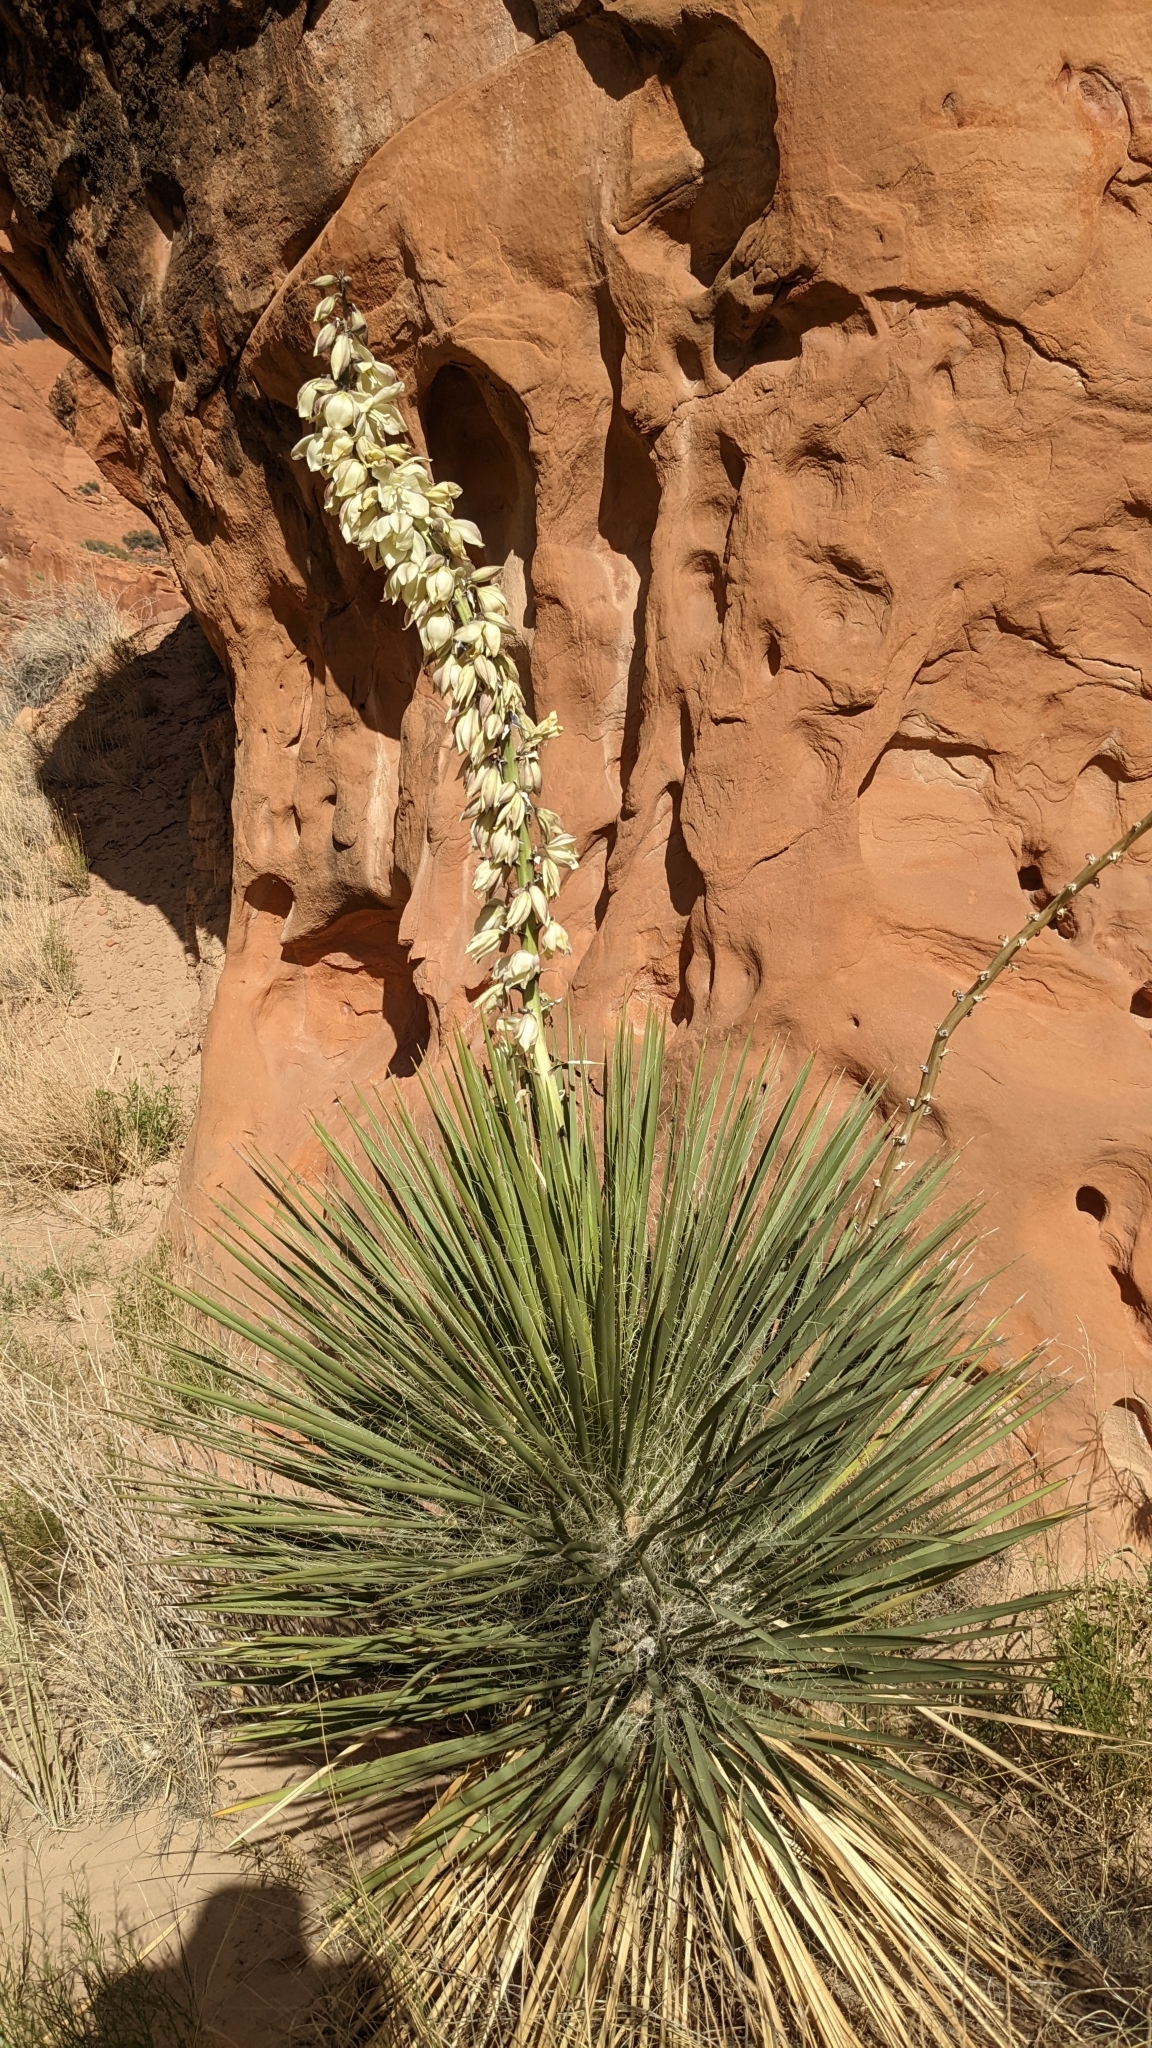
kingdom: Plantae
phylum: Tracheophyta
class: Liliopsida
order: Asparagales
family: Asparagaceae
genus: Yucca
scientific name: Yucca angustissima
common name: Narrowleaf yucca
